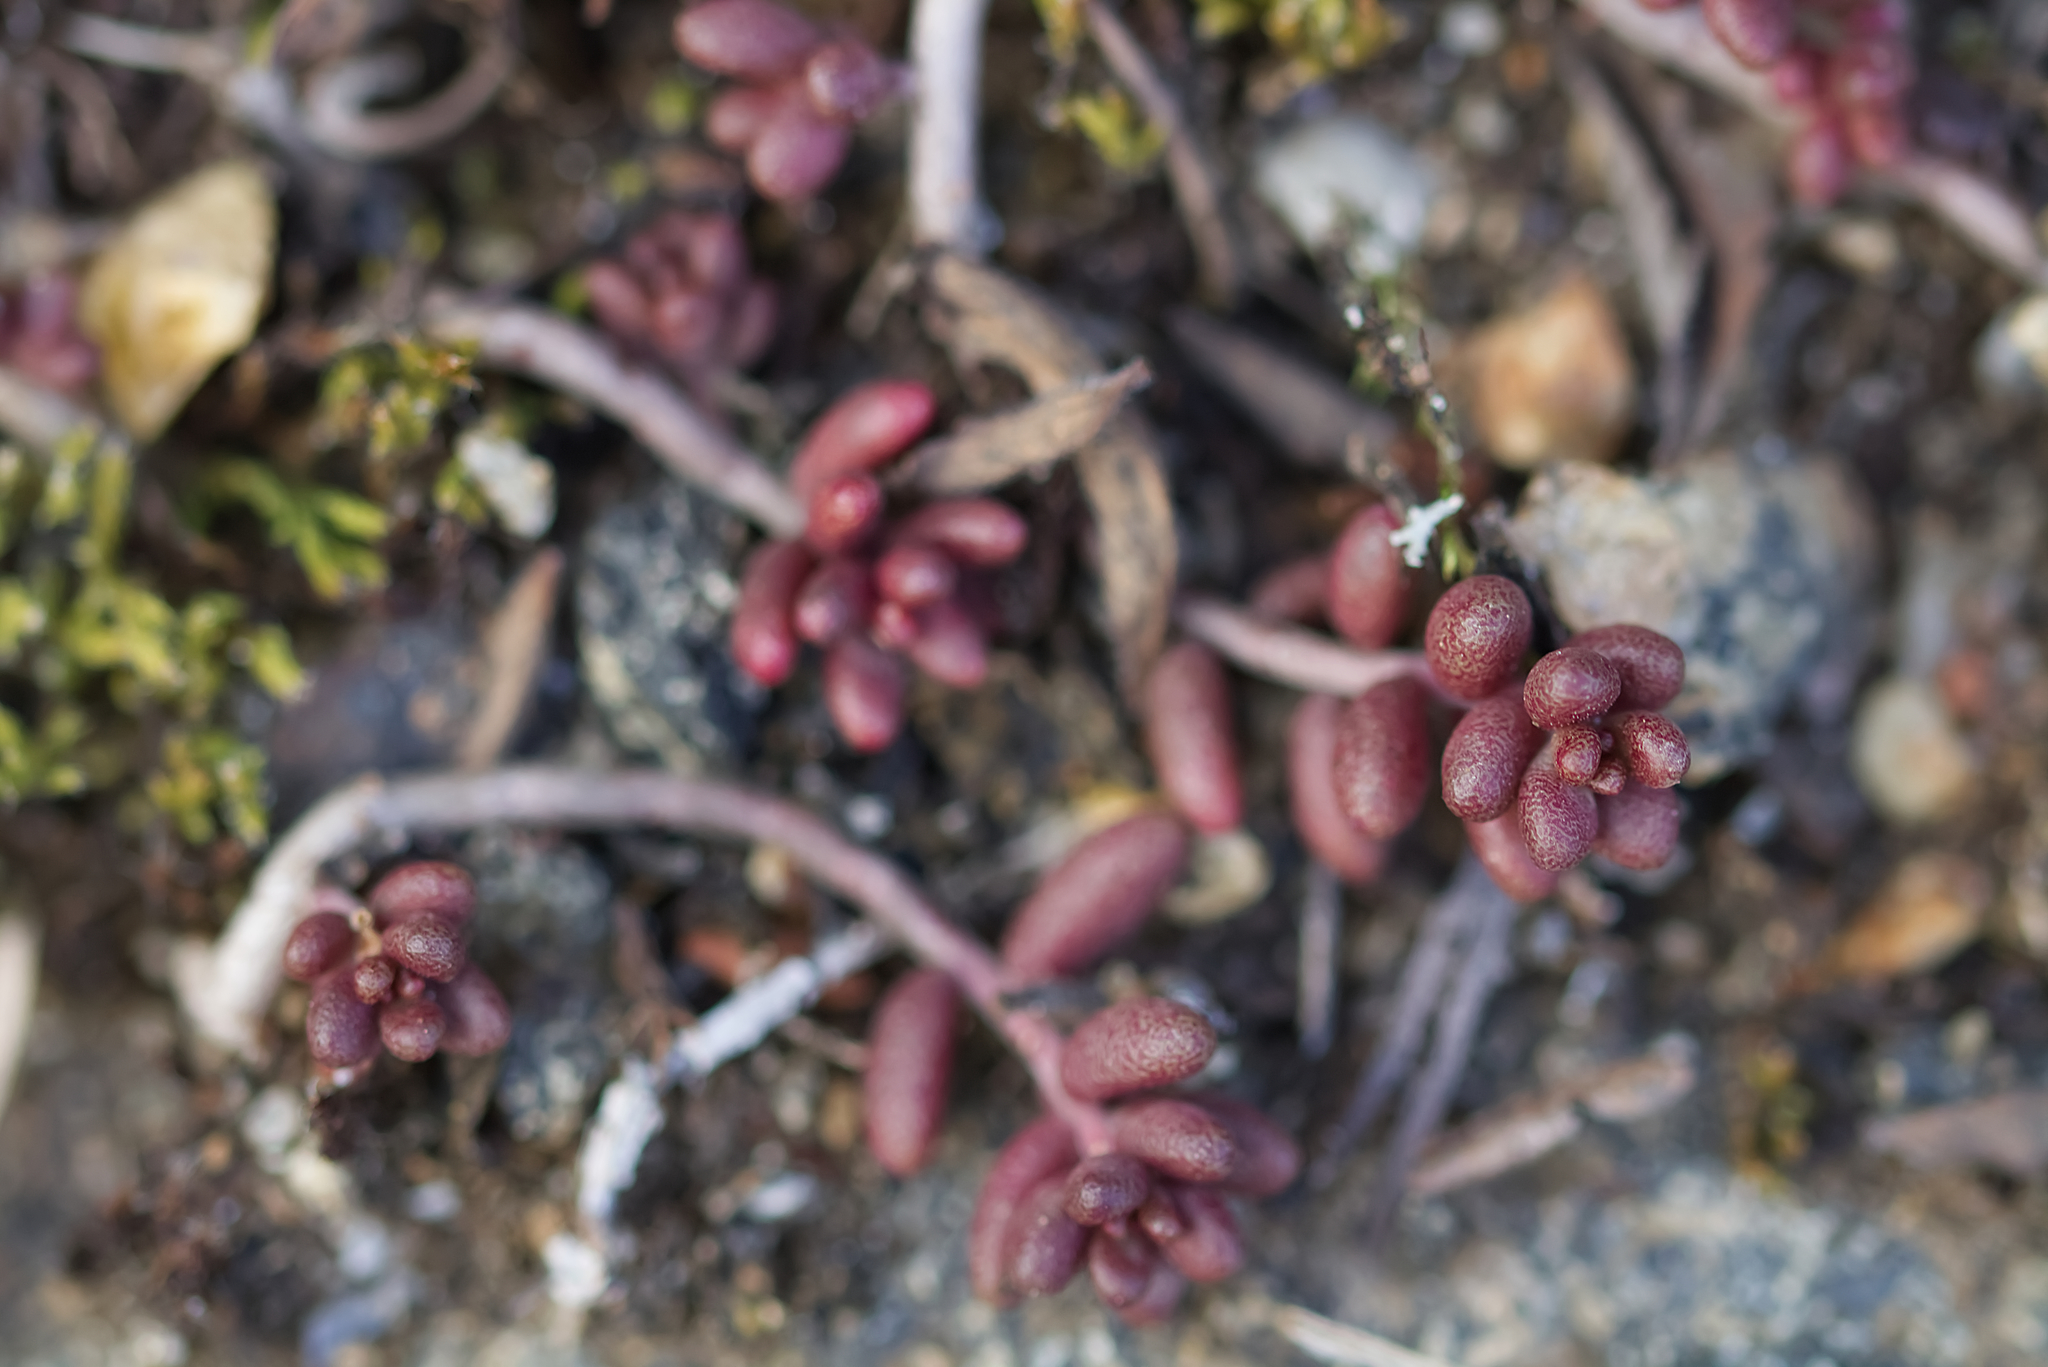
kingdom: Plantae
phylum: Tracheophyta
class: Magnoliopsida
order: Saxifragales
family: Crassulaceae
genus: Sedum
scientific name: Sedum album
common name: White stonecrop
